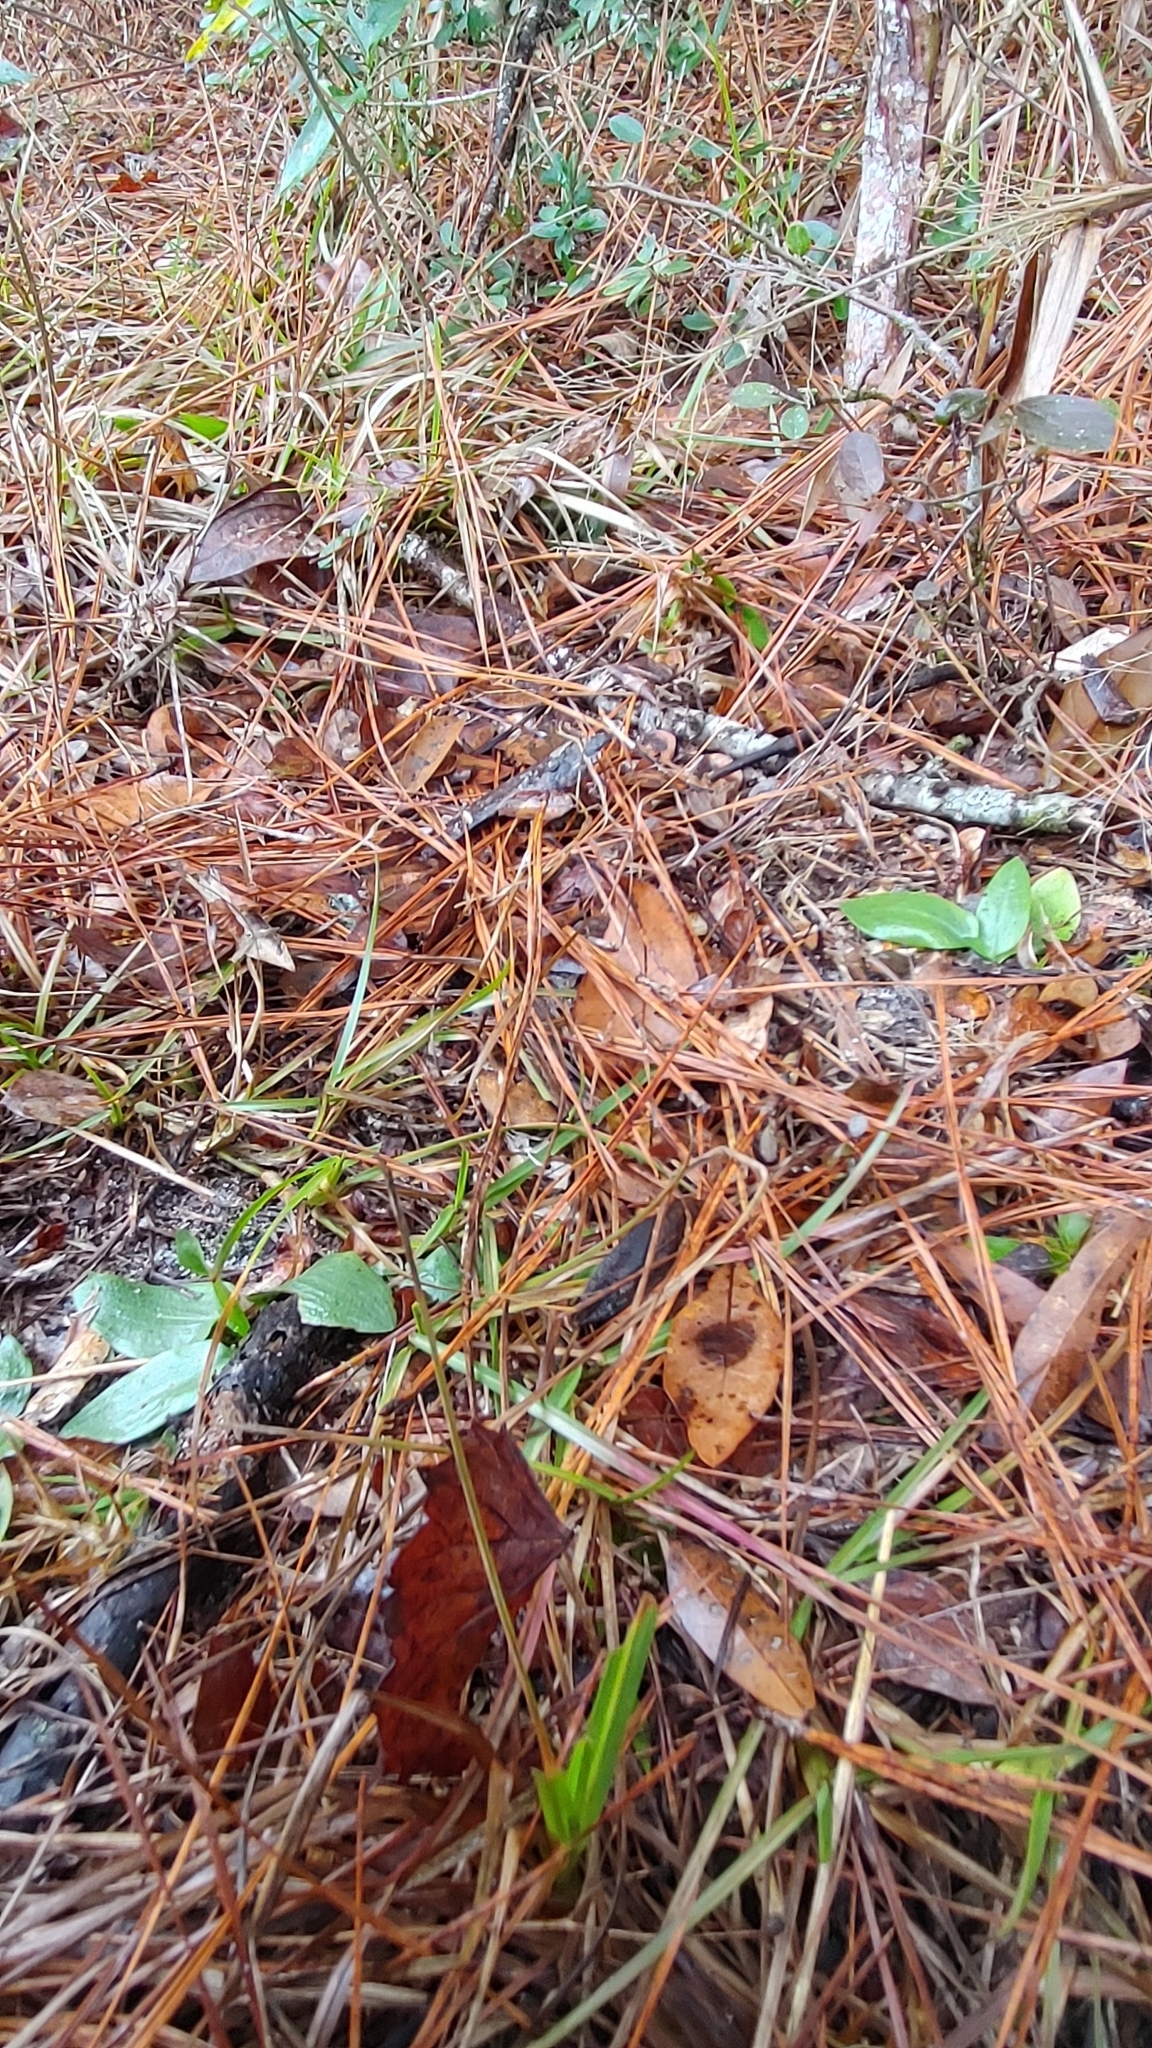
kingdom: Plantae
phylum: Tracheophyta
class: Liliopsida
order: Asparagales
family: Orchidaceae
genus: Spiranthes
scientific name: Spiranthes tuberosa
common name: Little ladies'-tresses
